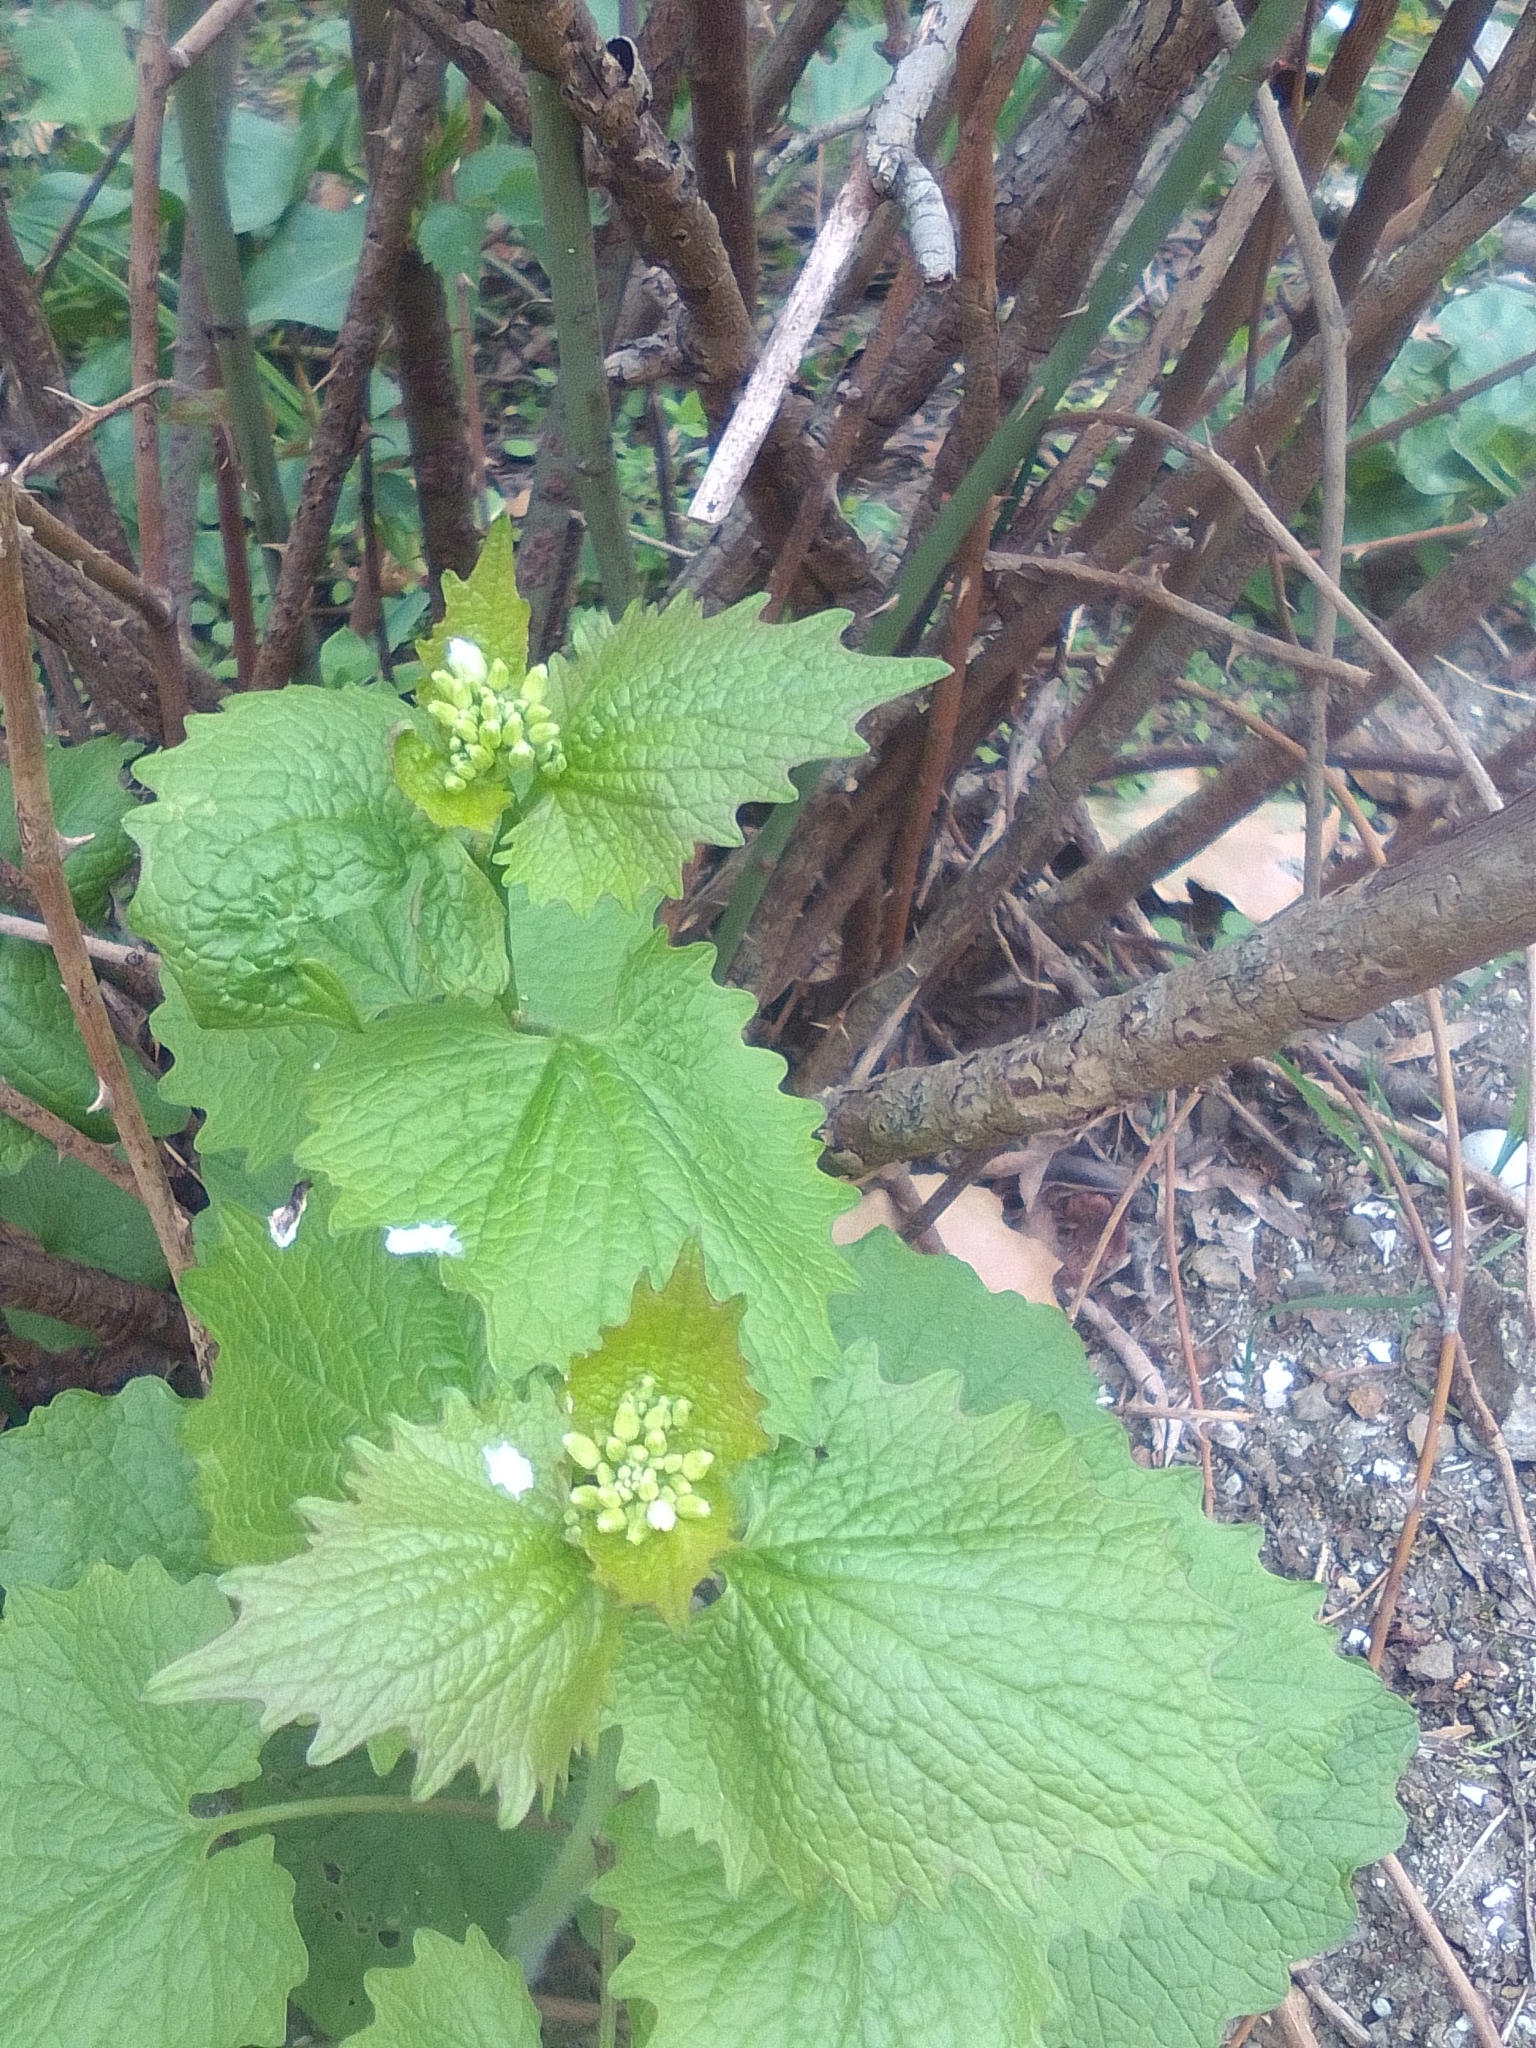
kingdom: Plantae
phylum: Tracheophyta
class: Magnoliopsida
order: Brassicales
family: Brassicaceae
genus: Alliaria
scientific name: Alliaria petiolata
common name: Garlic mustard
